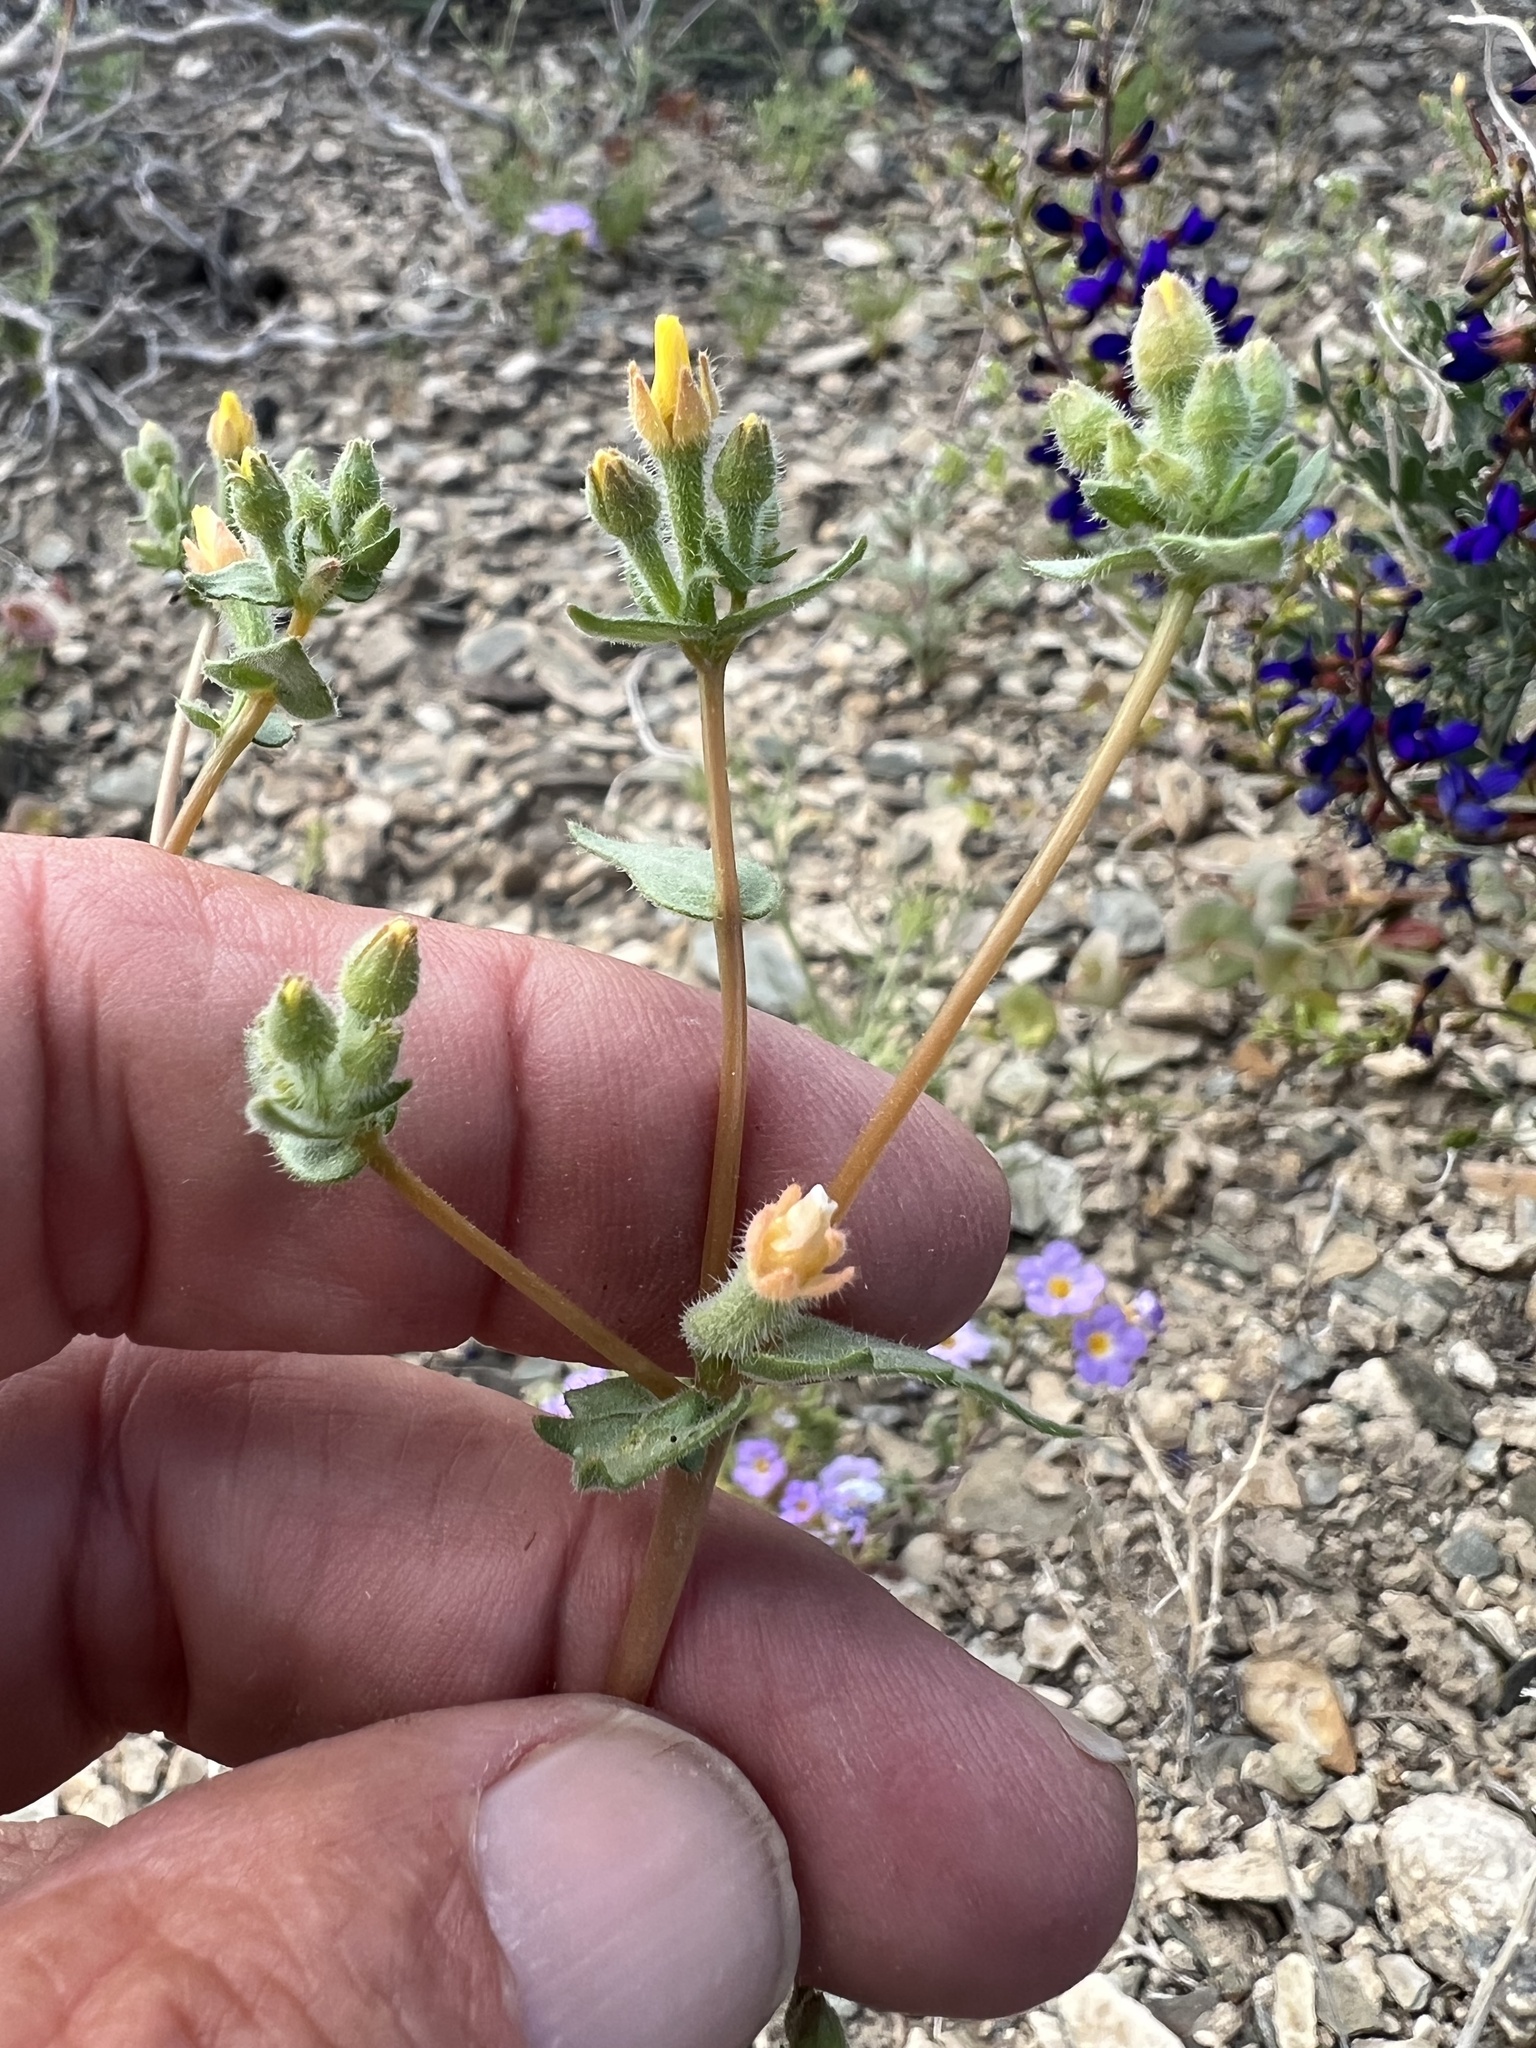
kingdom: Plantae
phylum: Tracheophyta
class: Magnoliopsida
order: Cornales
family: Loasaceae
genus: Mentzelia
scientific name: Mentzelia albicaulis
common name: White-stem blazingstar
